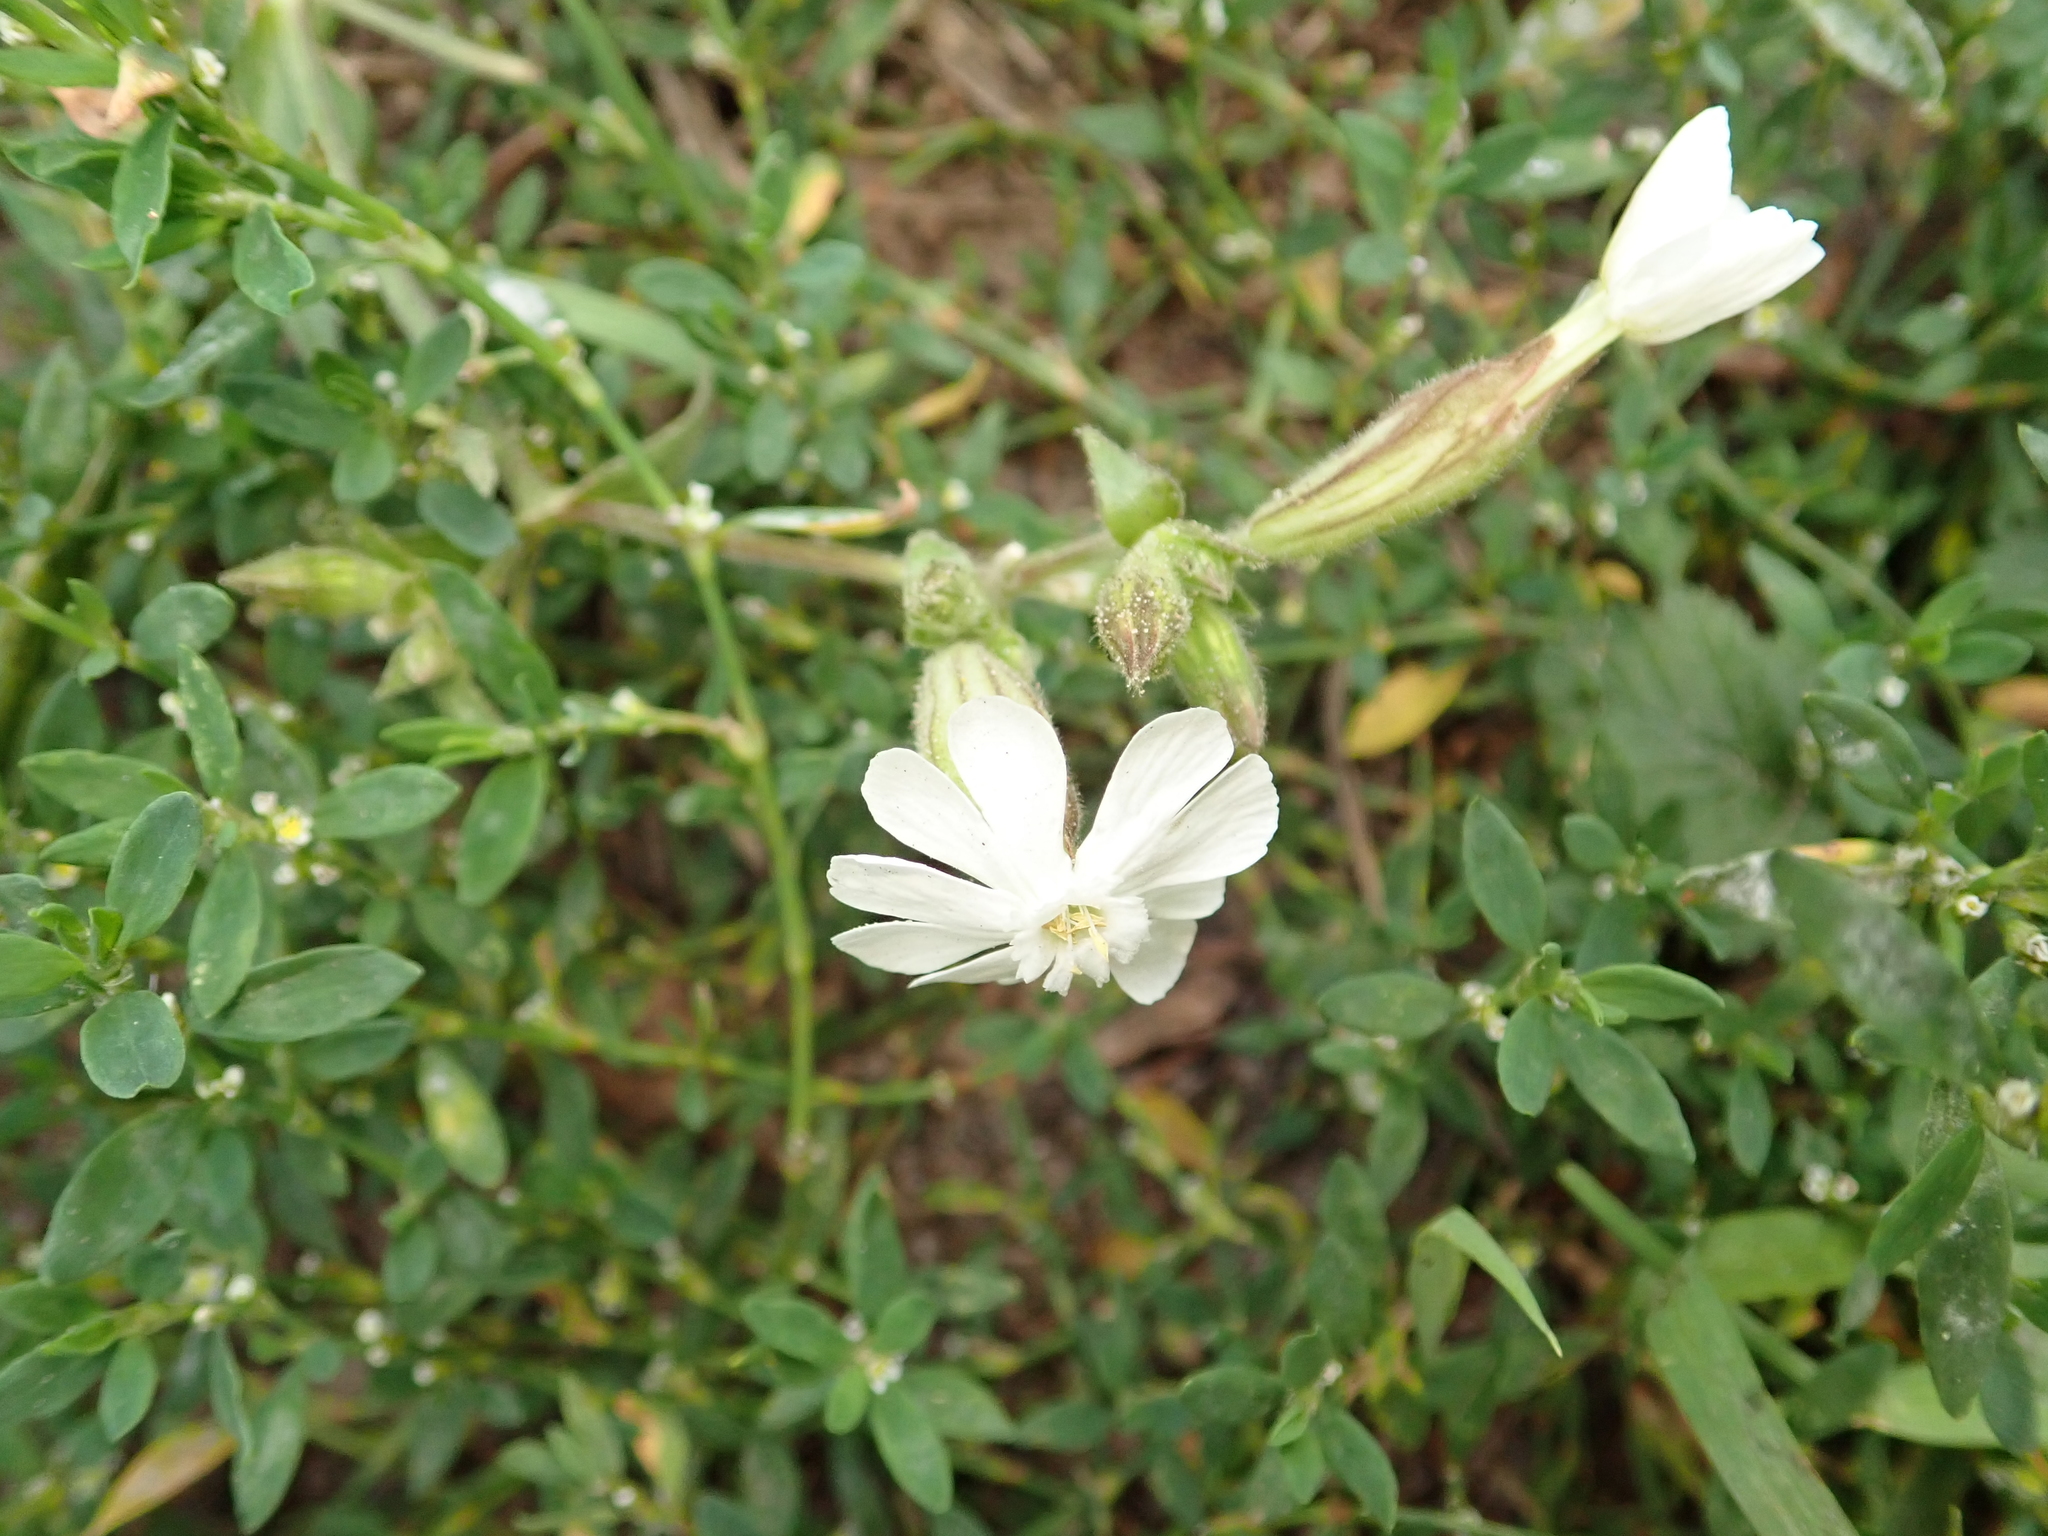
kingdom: Plantae
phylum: Tracheophyta
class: Magnoliopsida
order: Caryophyllales
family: Caryophyllaceae
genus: Silene
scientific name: Silene latifolia
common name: White campion
